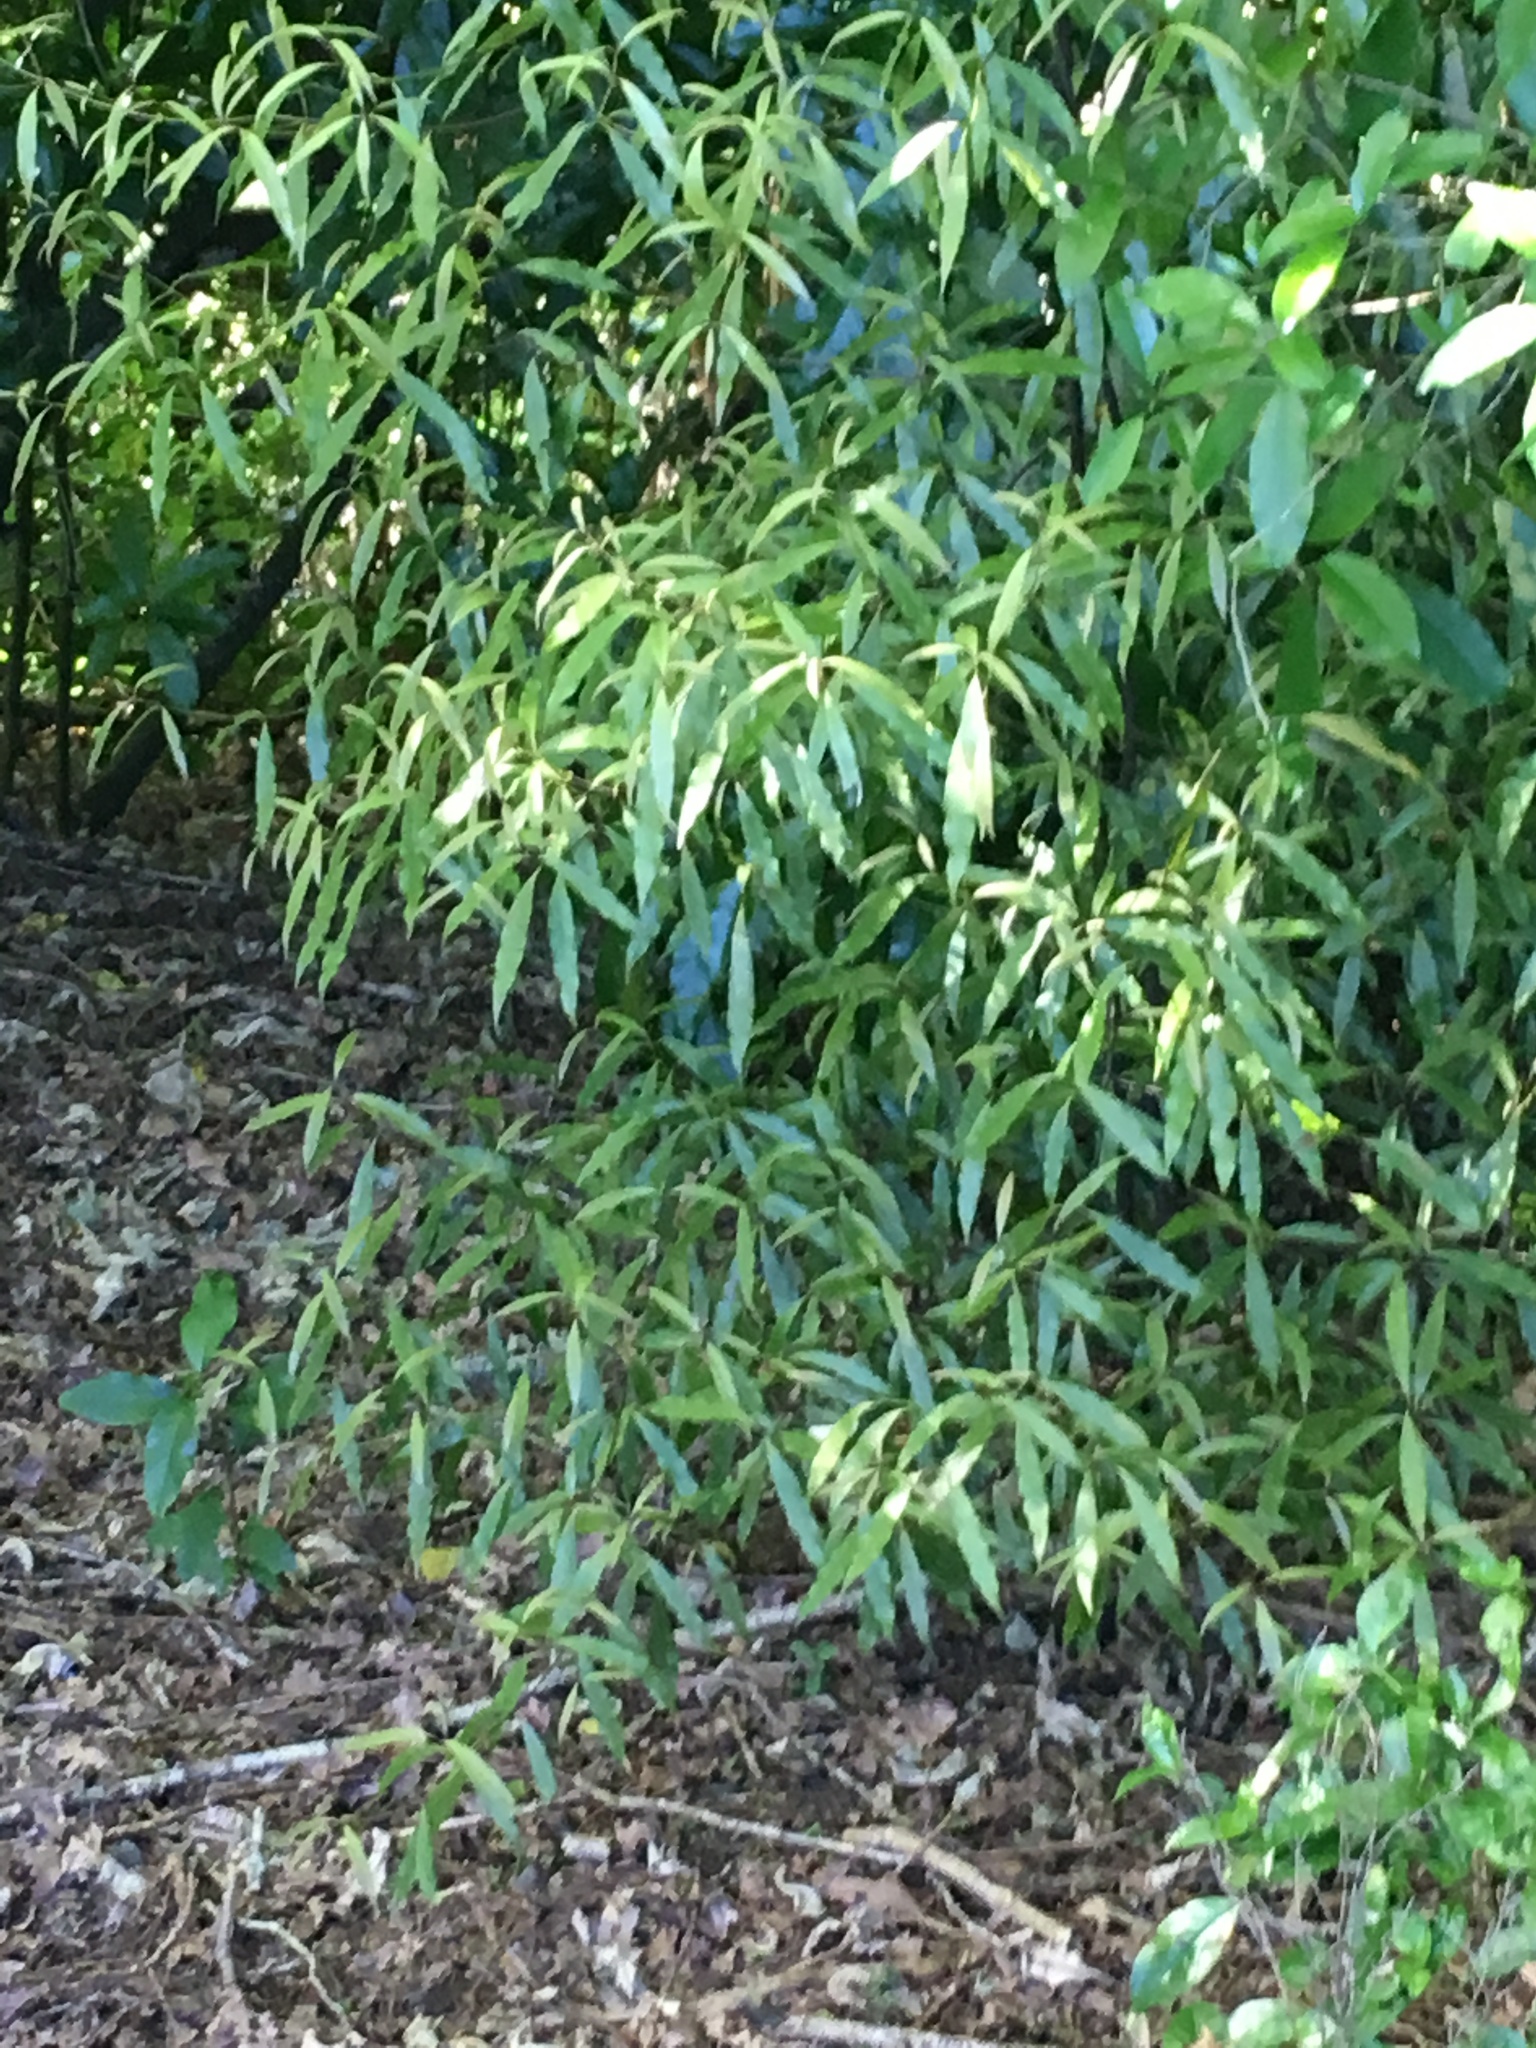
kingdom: Plantae
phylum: Tracheophyta
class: Magnoliopsida
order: Laurales
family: Lauraceae
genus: Beilschmiedia
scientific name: Beilschmiedia tawa
